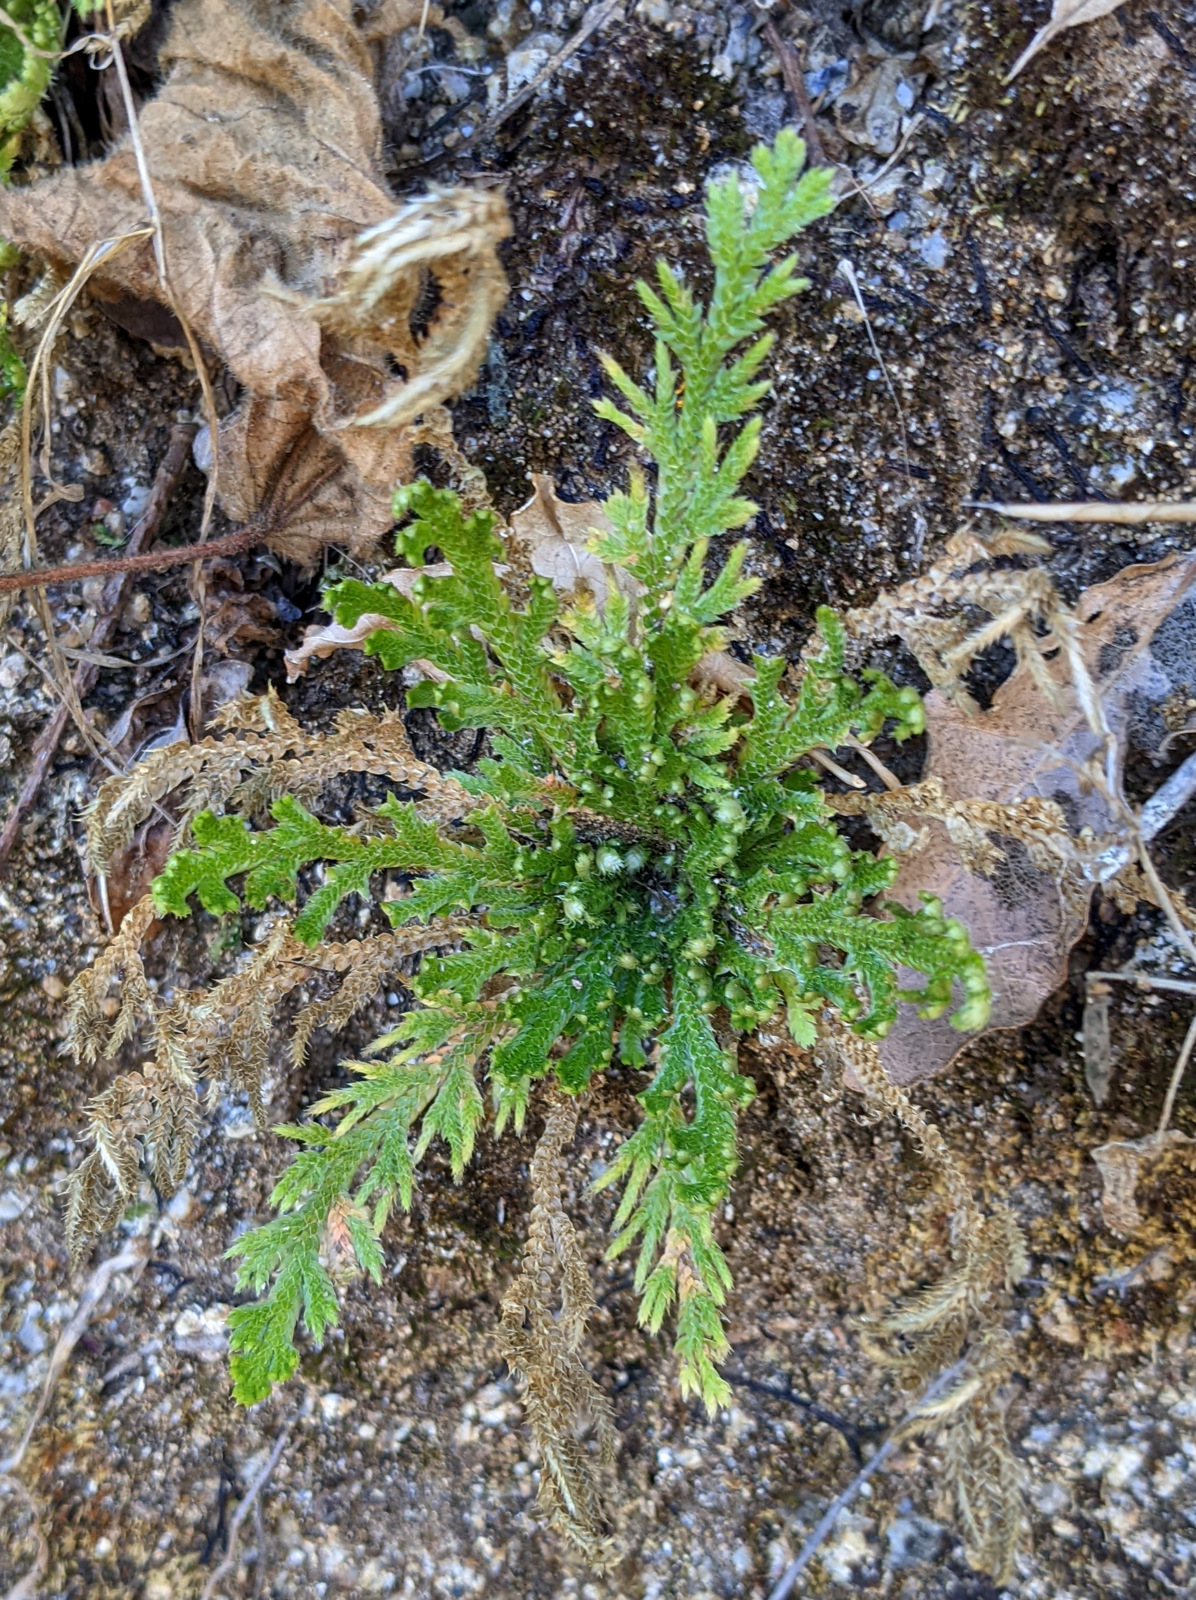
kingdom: Plantae
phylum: Tracheophyta
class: Lycopodiopsida
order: Selaginellales
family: Selaginellaceae
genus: Selaginella
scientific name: Selaginella pallescens
